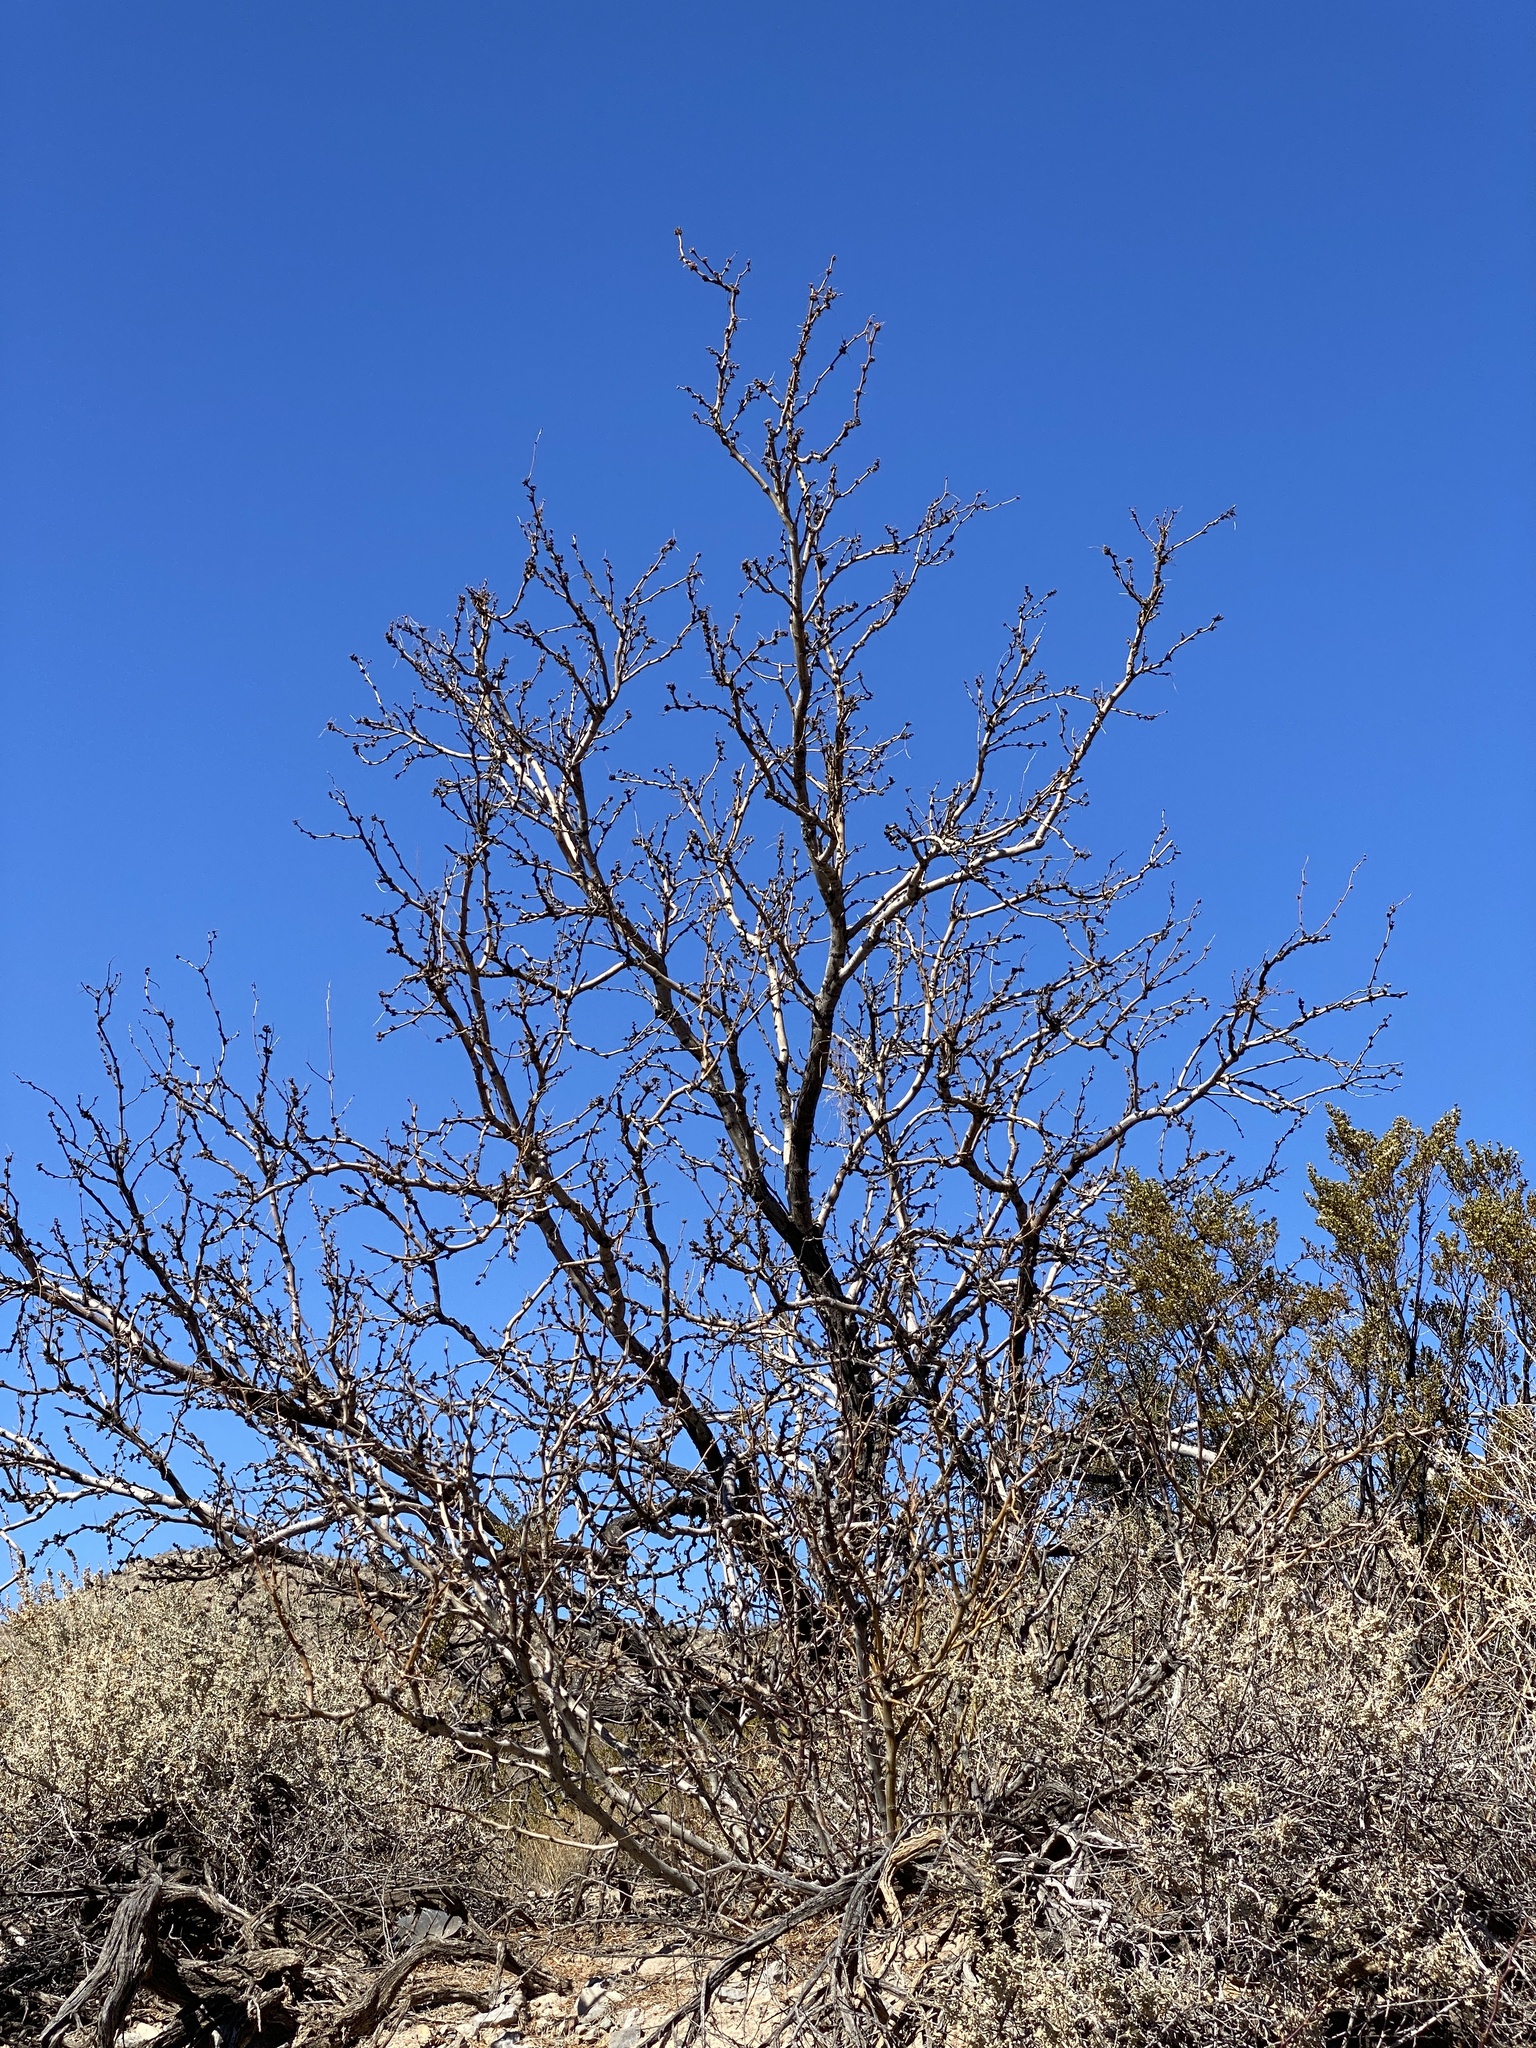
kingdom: Plantae
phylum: Tracheophyta
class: Magnoliopsida
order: Fabales
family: Fabaceae
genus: Prosopis
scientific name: Prosopis glandulosa
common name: Honey mesquite
